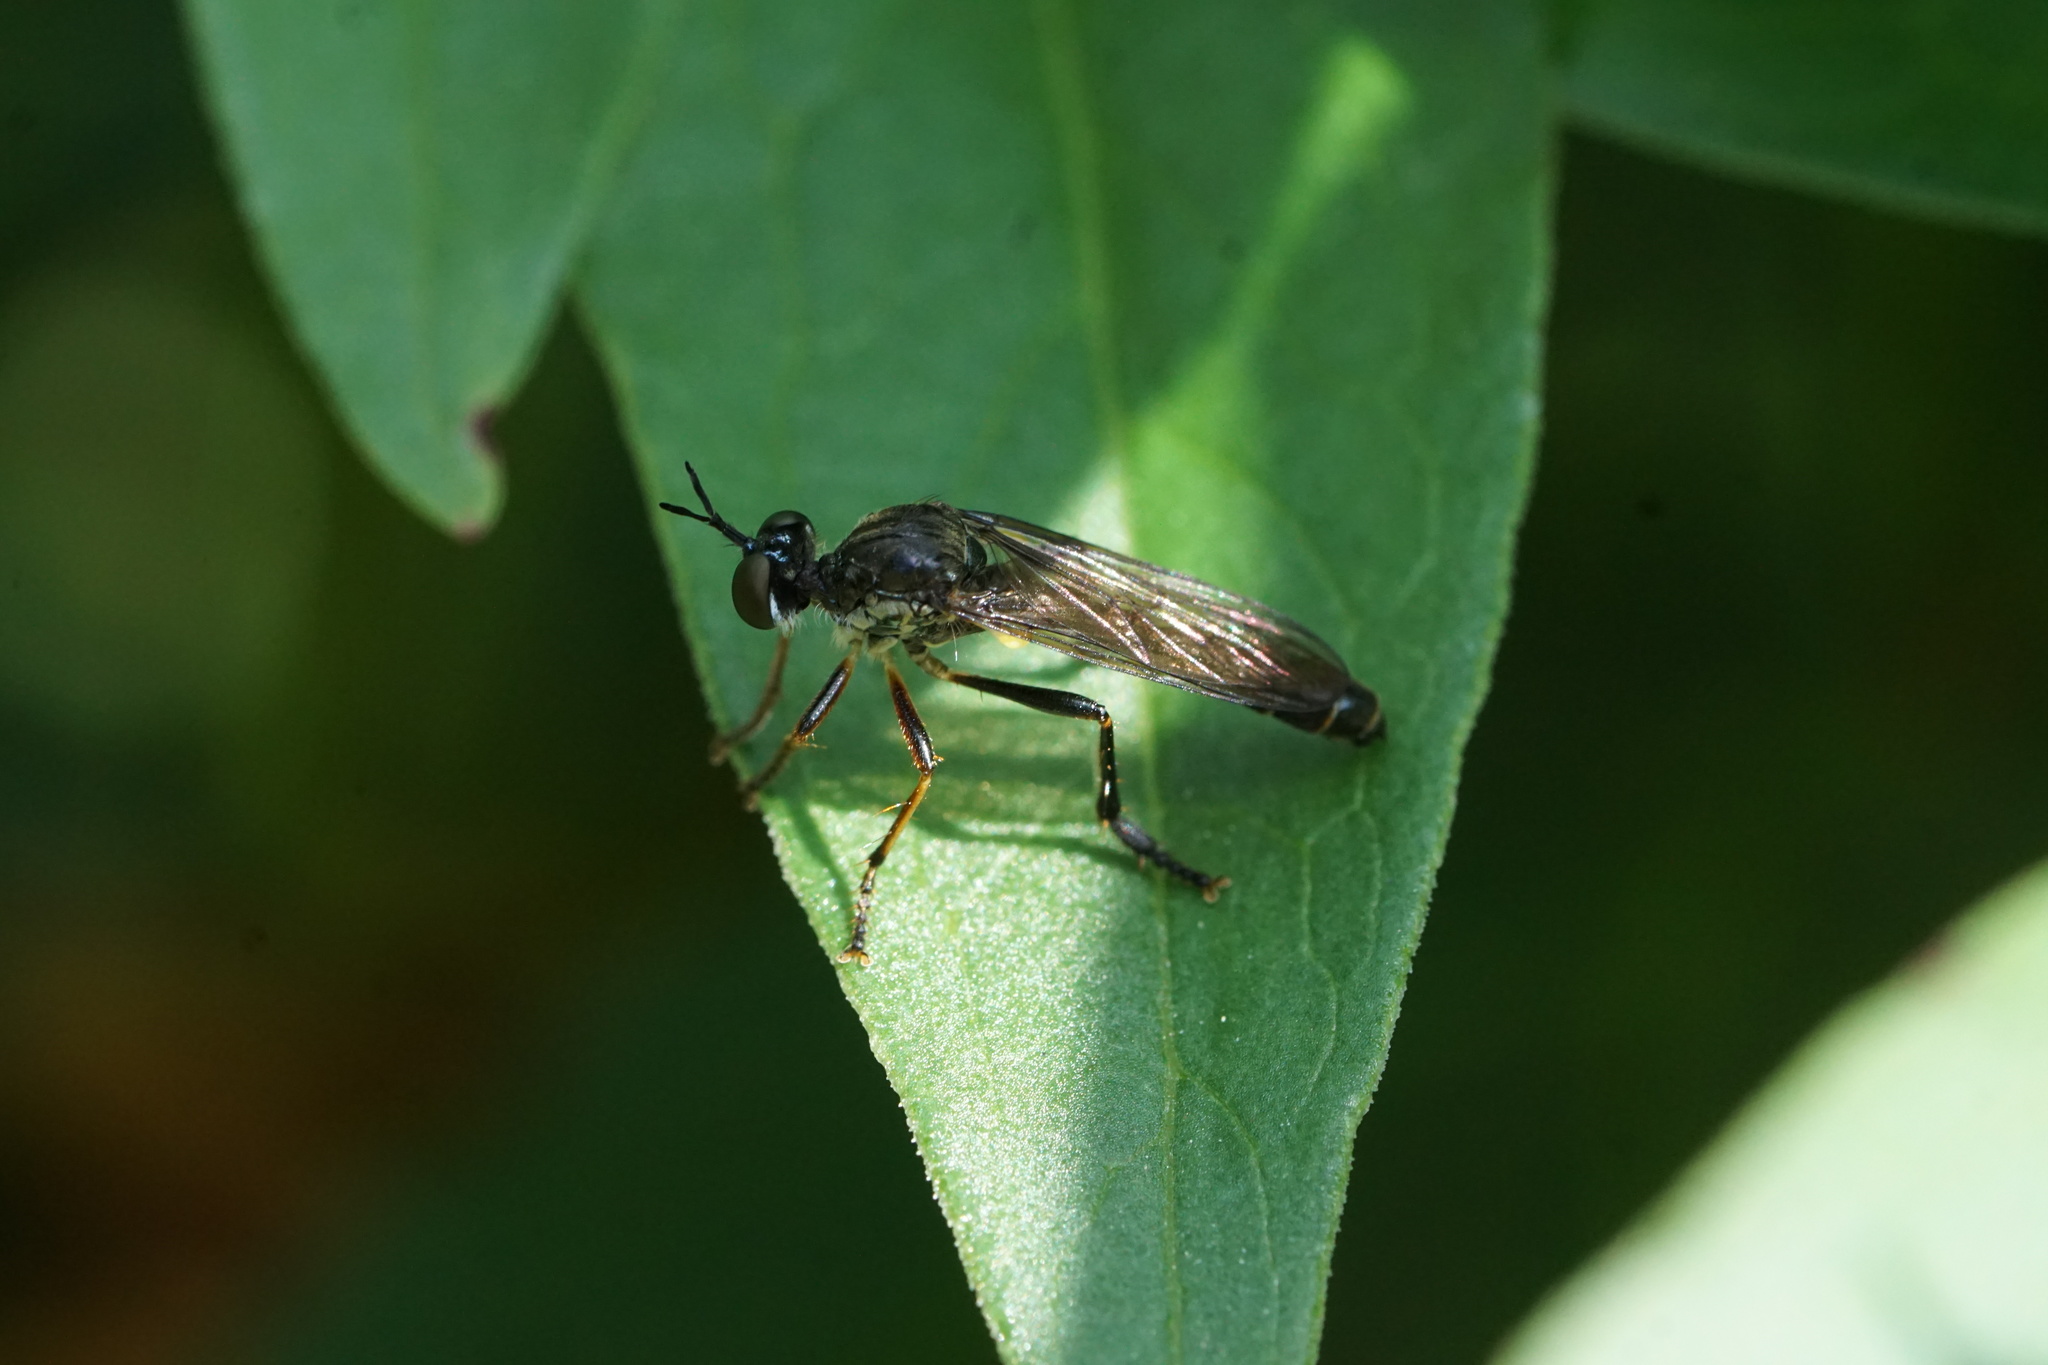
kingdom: Animalia
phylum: Arthropoda
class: Insecta
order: Diptera
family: Asilidae
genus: Dioctria
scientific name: Dioctria hyalipennis
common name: Stripe-legged robberfly
